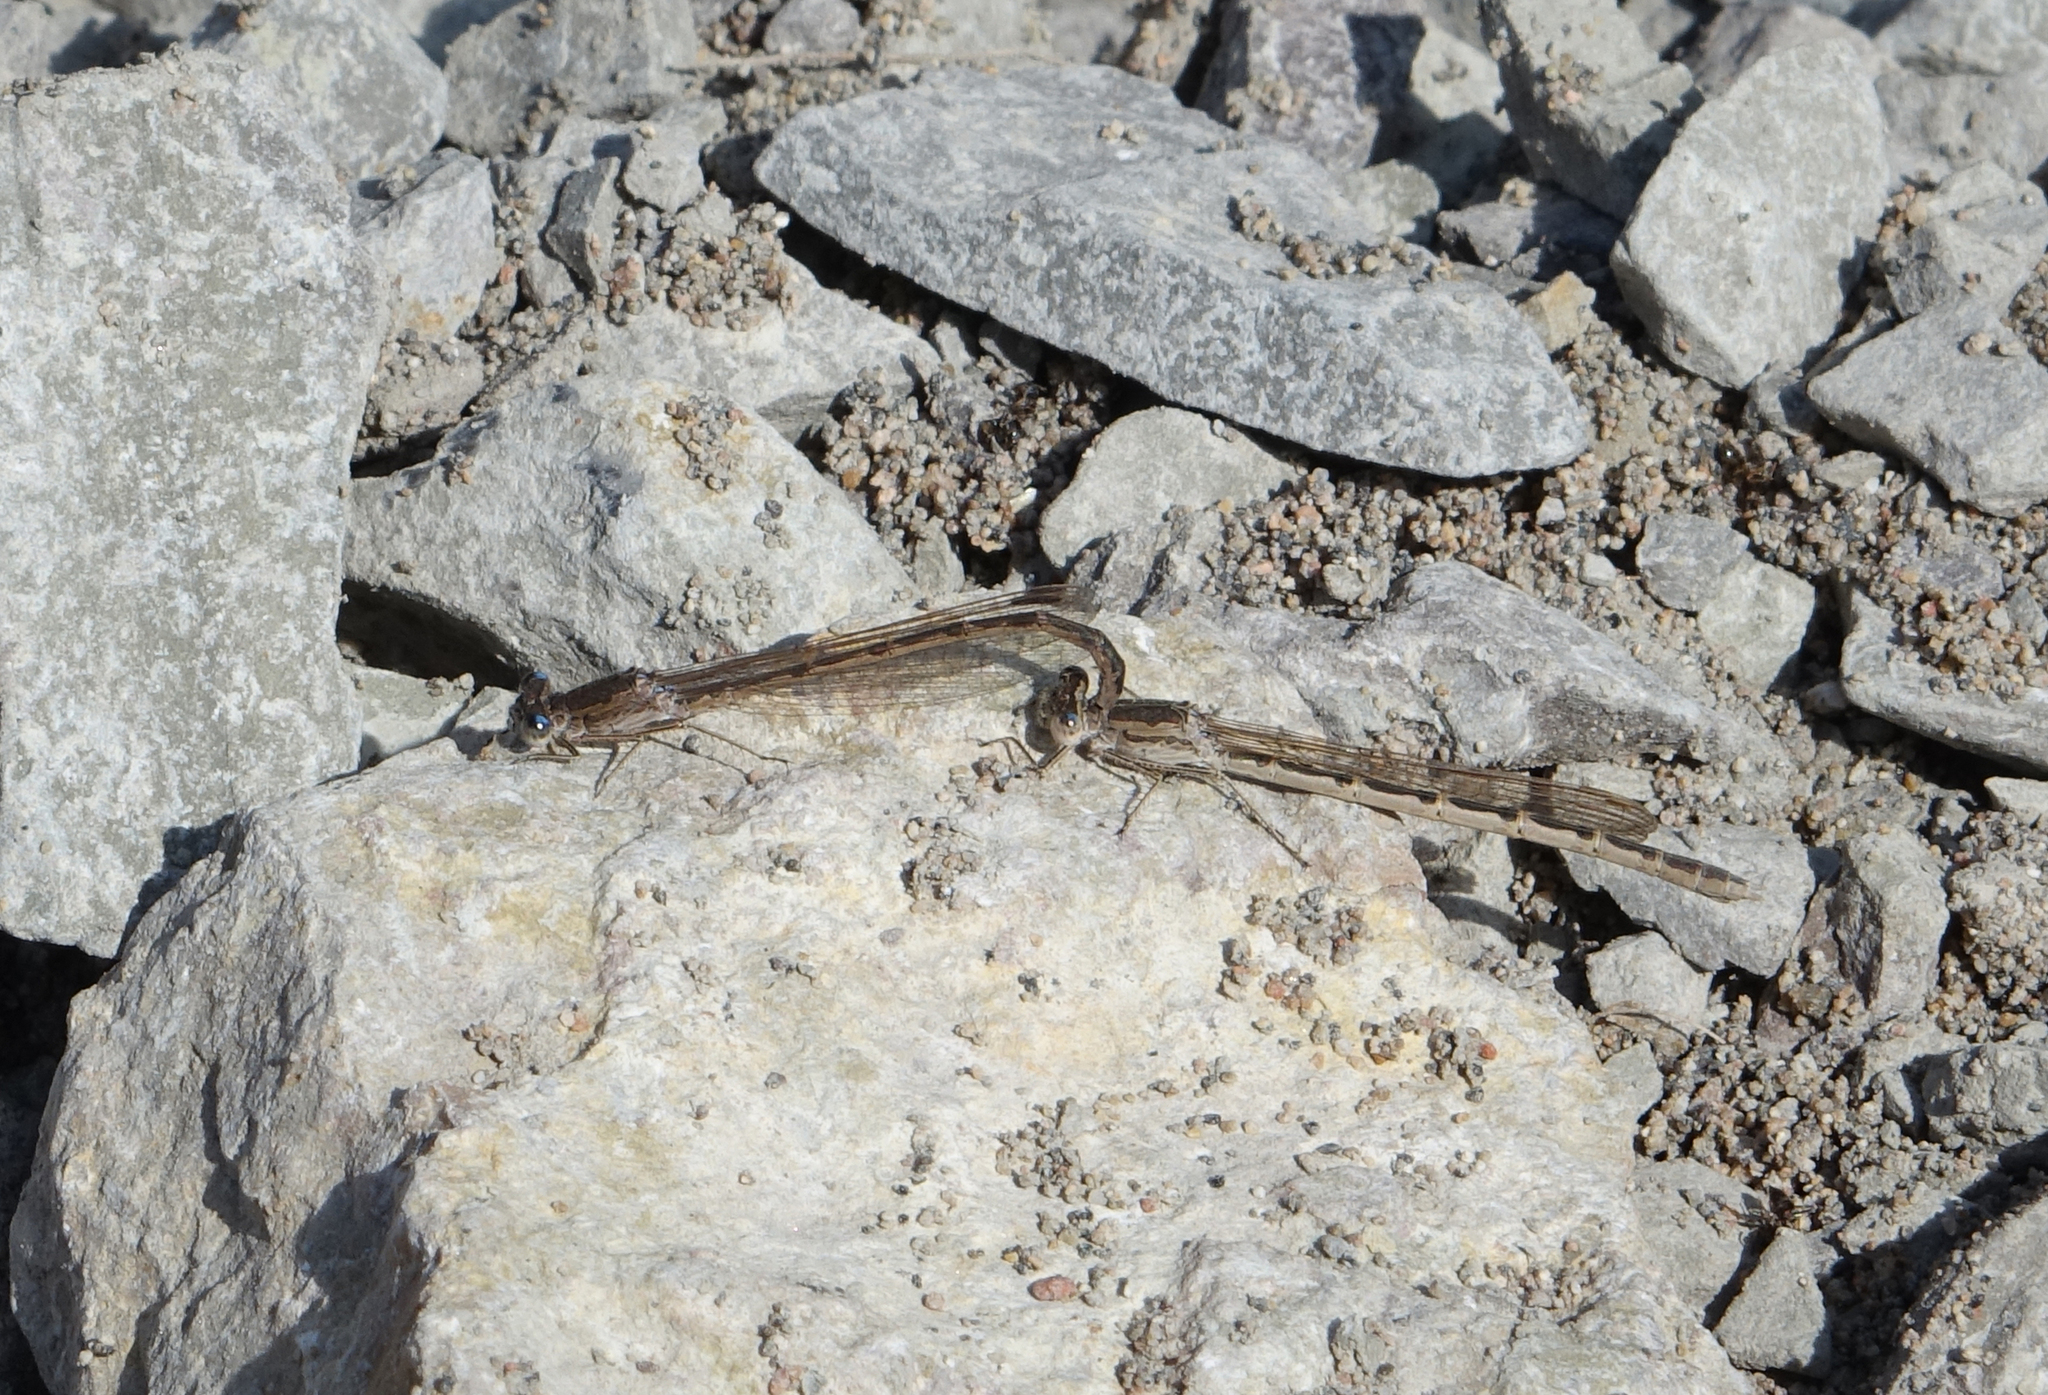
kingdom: Animalia
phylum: Arthropoda
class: Insecta
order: Odonata
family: Lestidae
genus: Sympecma
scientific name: Sympecma paedisca
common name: Siberian winter damsel
